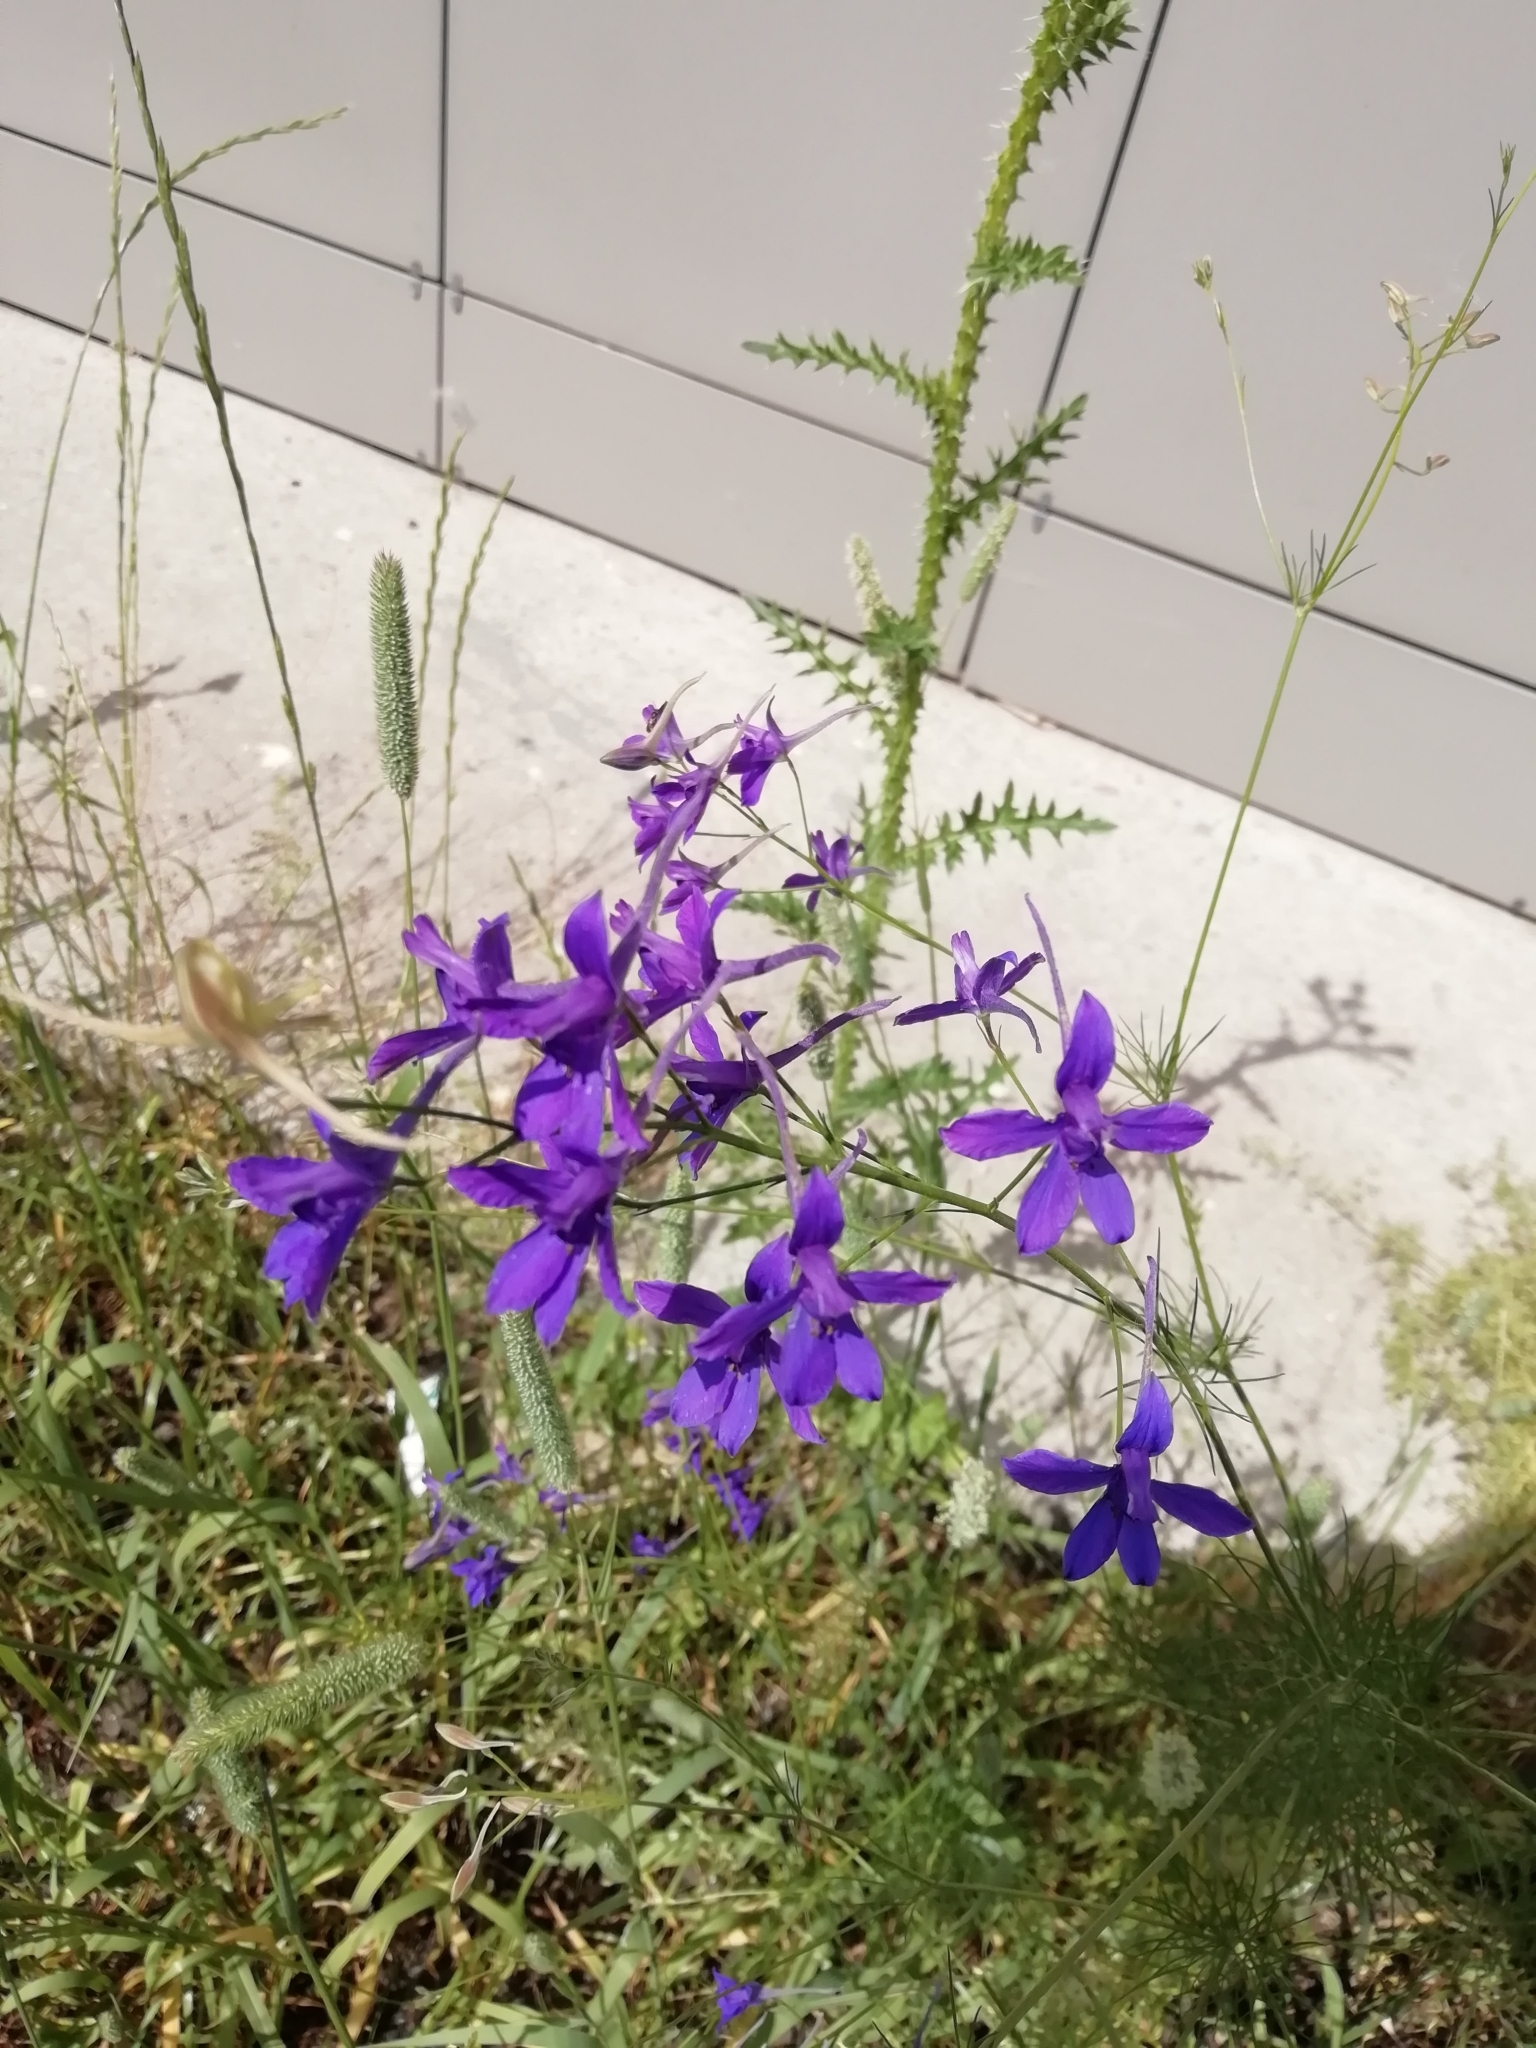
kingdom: Plantae
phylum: Tracheophyta
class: Magnoliopsida
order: Ranunculales
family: Ranunculaceae
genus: Delphinium
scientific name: Delphinium consolida
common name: Branching larkspur
